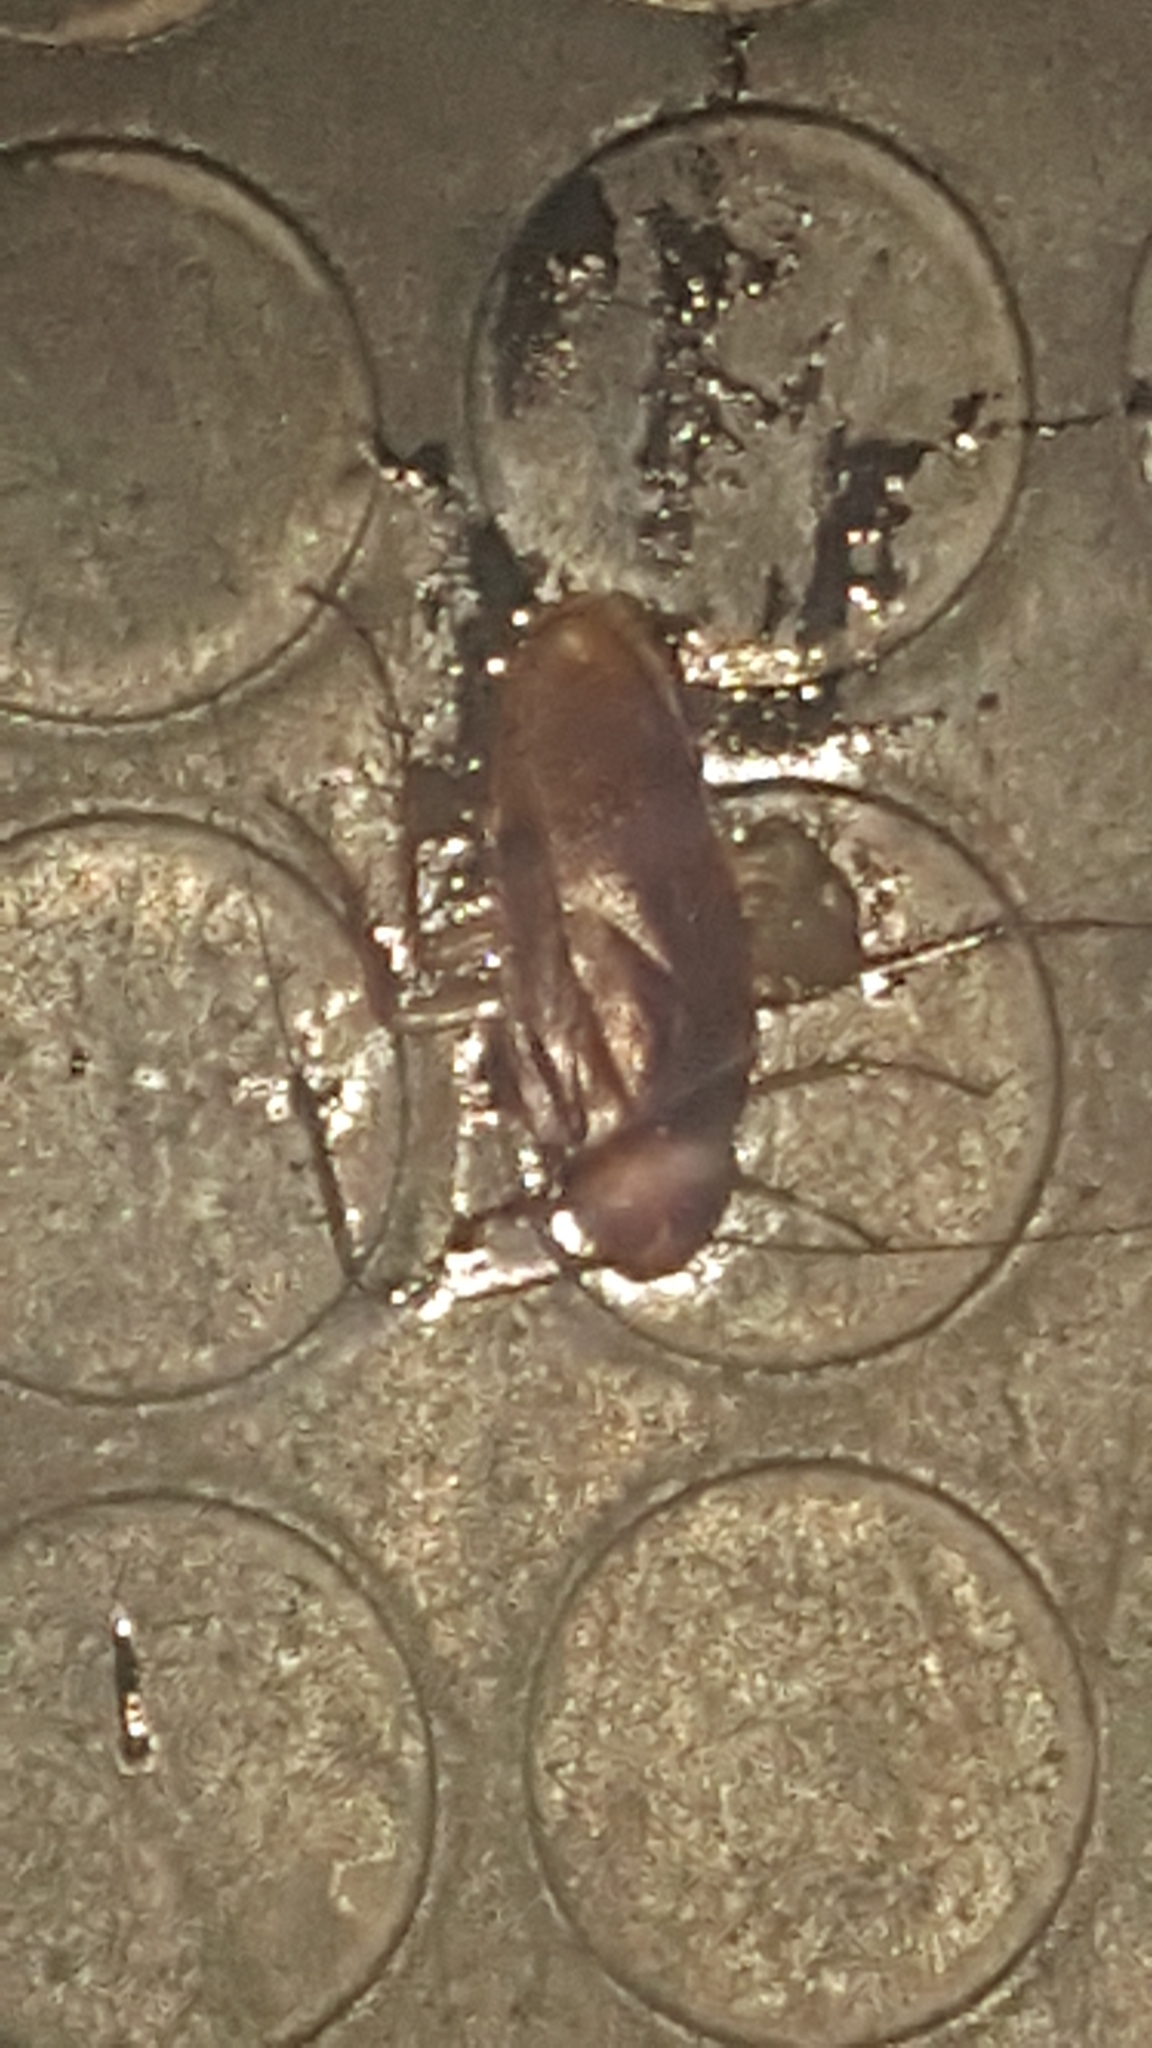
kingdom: Animalia
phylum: Arthropoda
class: Insecta
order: Blattodea
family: Blattidae
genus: Periplaneta
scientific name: Periplaneta americana
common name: American cockroach
